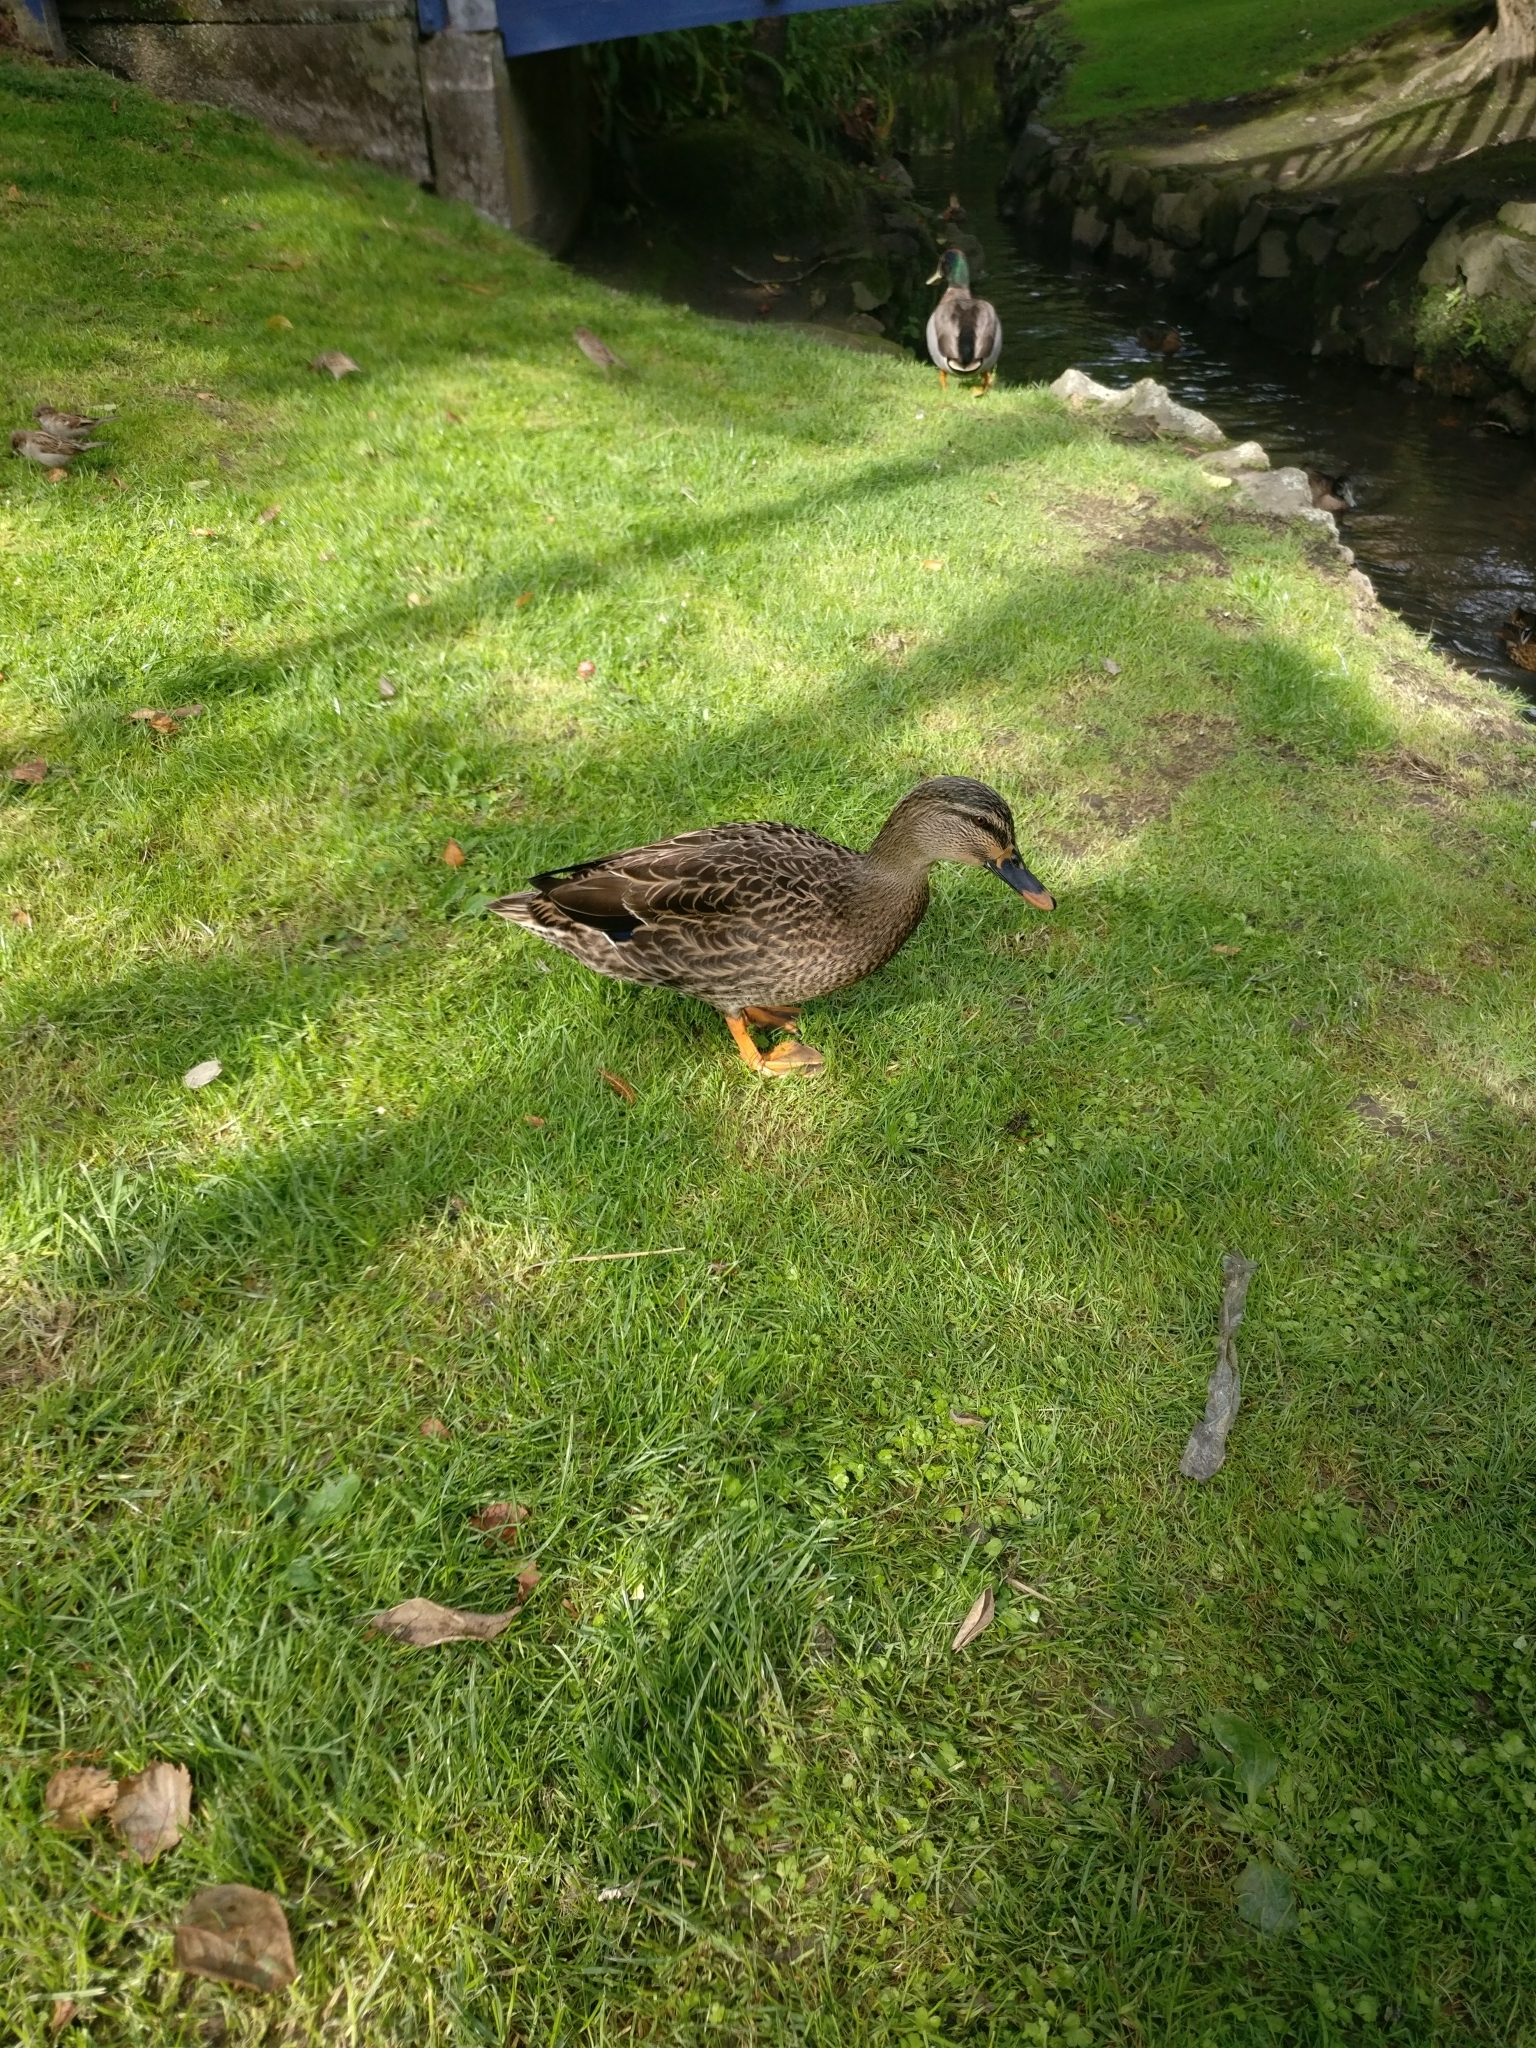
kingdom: Animalia
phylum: Chordata
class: Aves
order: Anseriformes
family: Anatidae
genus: Anas
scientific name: Anas platyrhynchos
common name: Mallard
